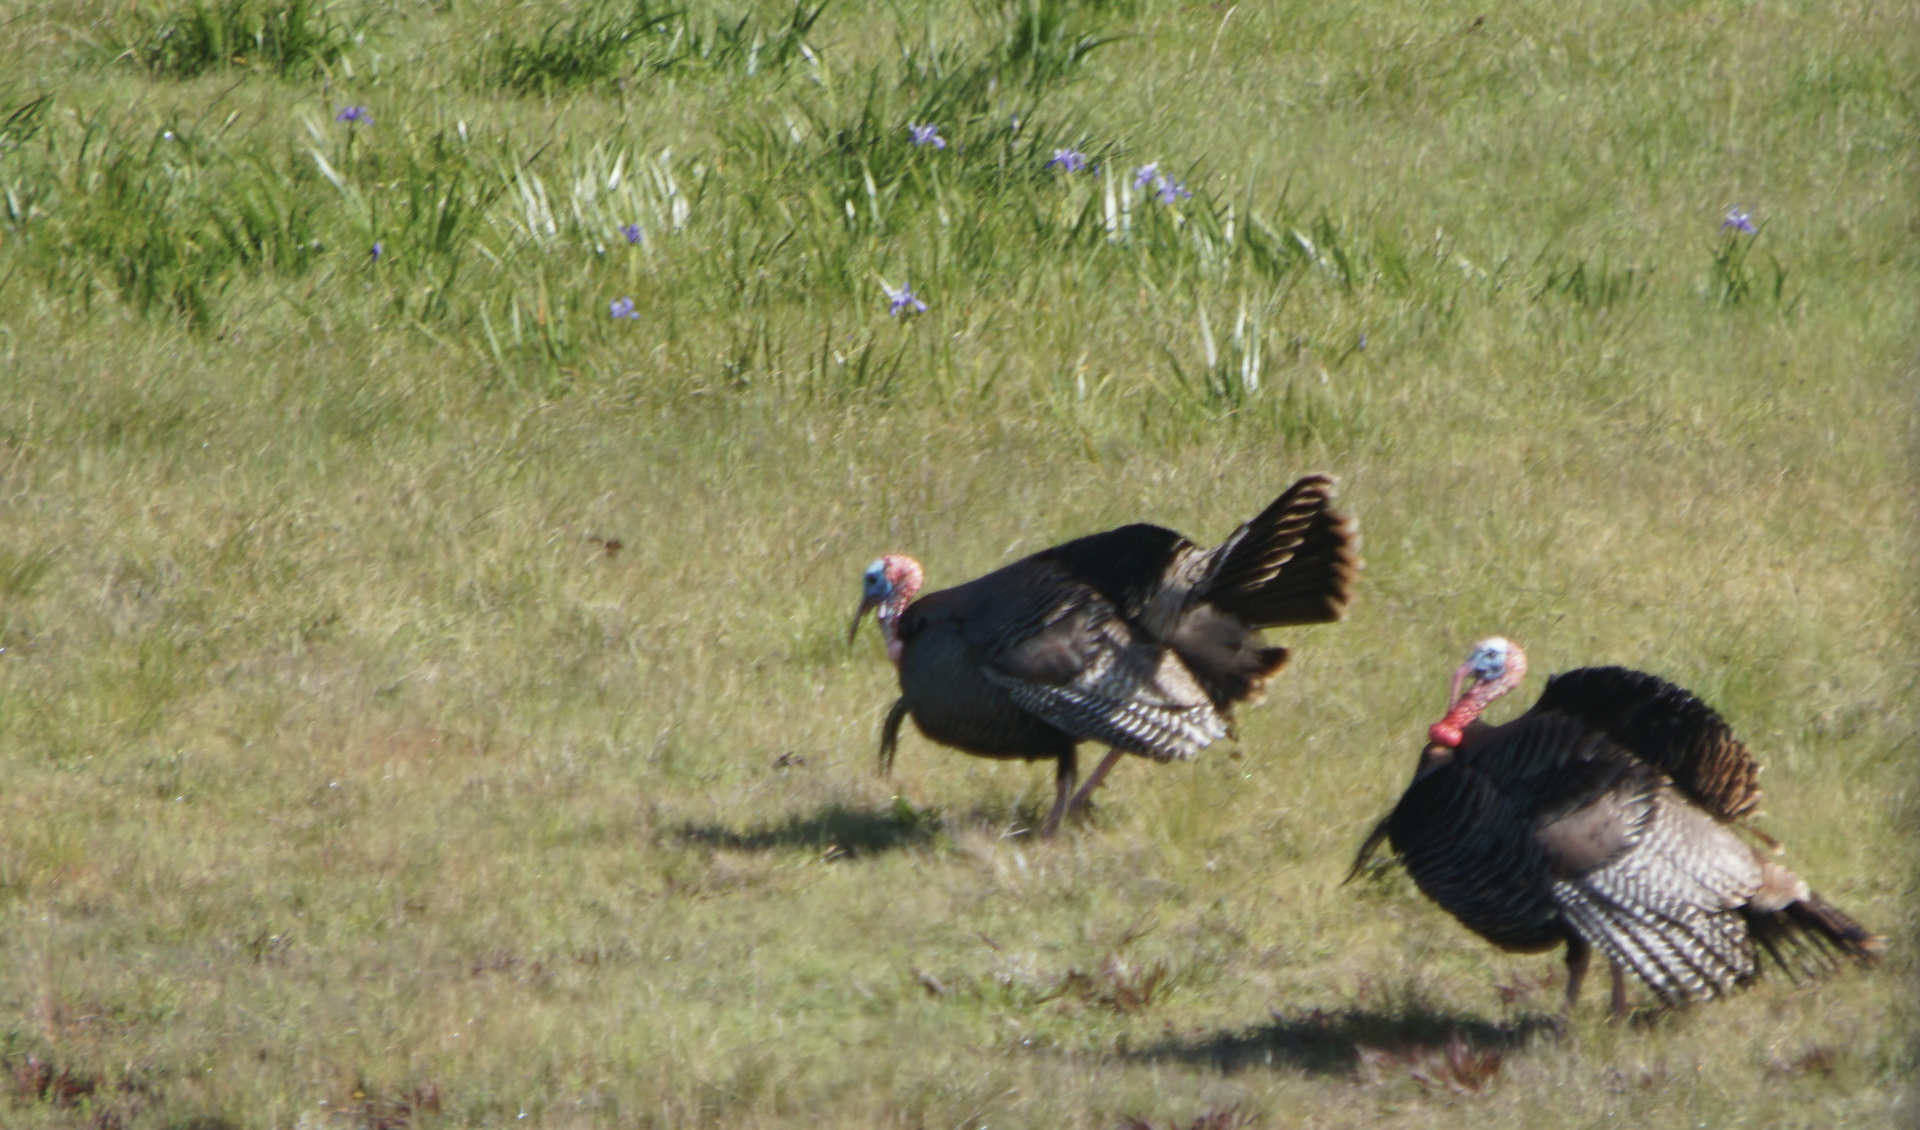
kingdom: Animalia
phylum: Chordata
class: Aves
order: Galliformes
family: Phasianidae
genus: Meleagris
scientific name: Meleagris gallopavo
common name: Wild turkey
